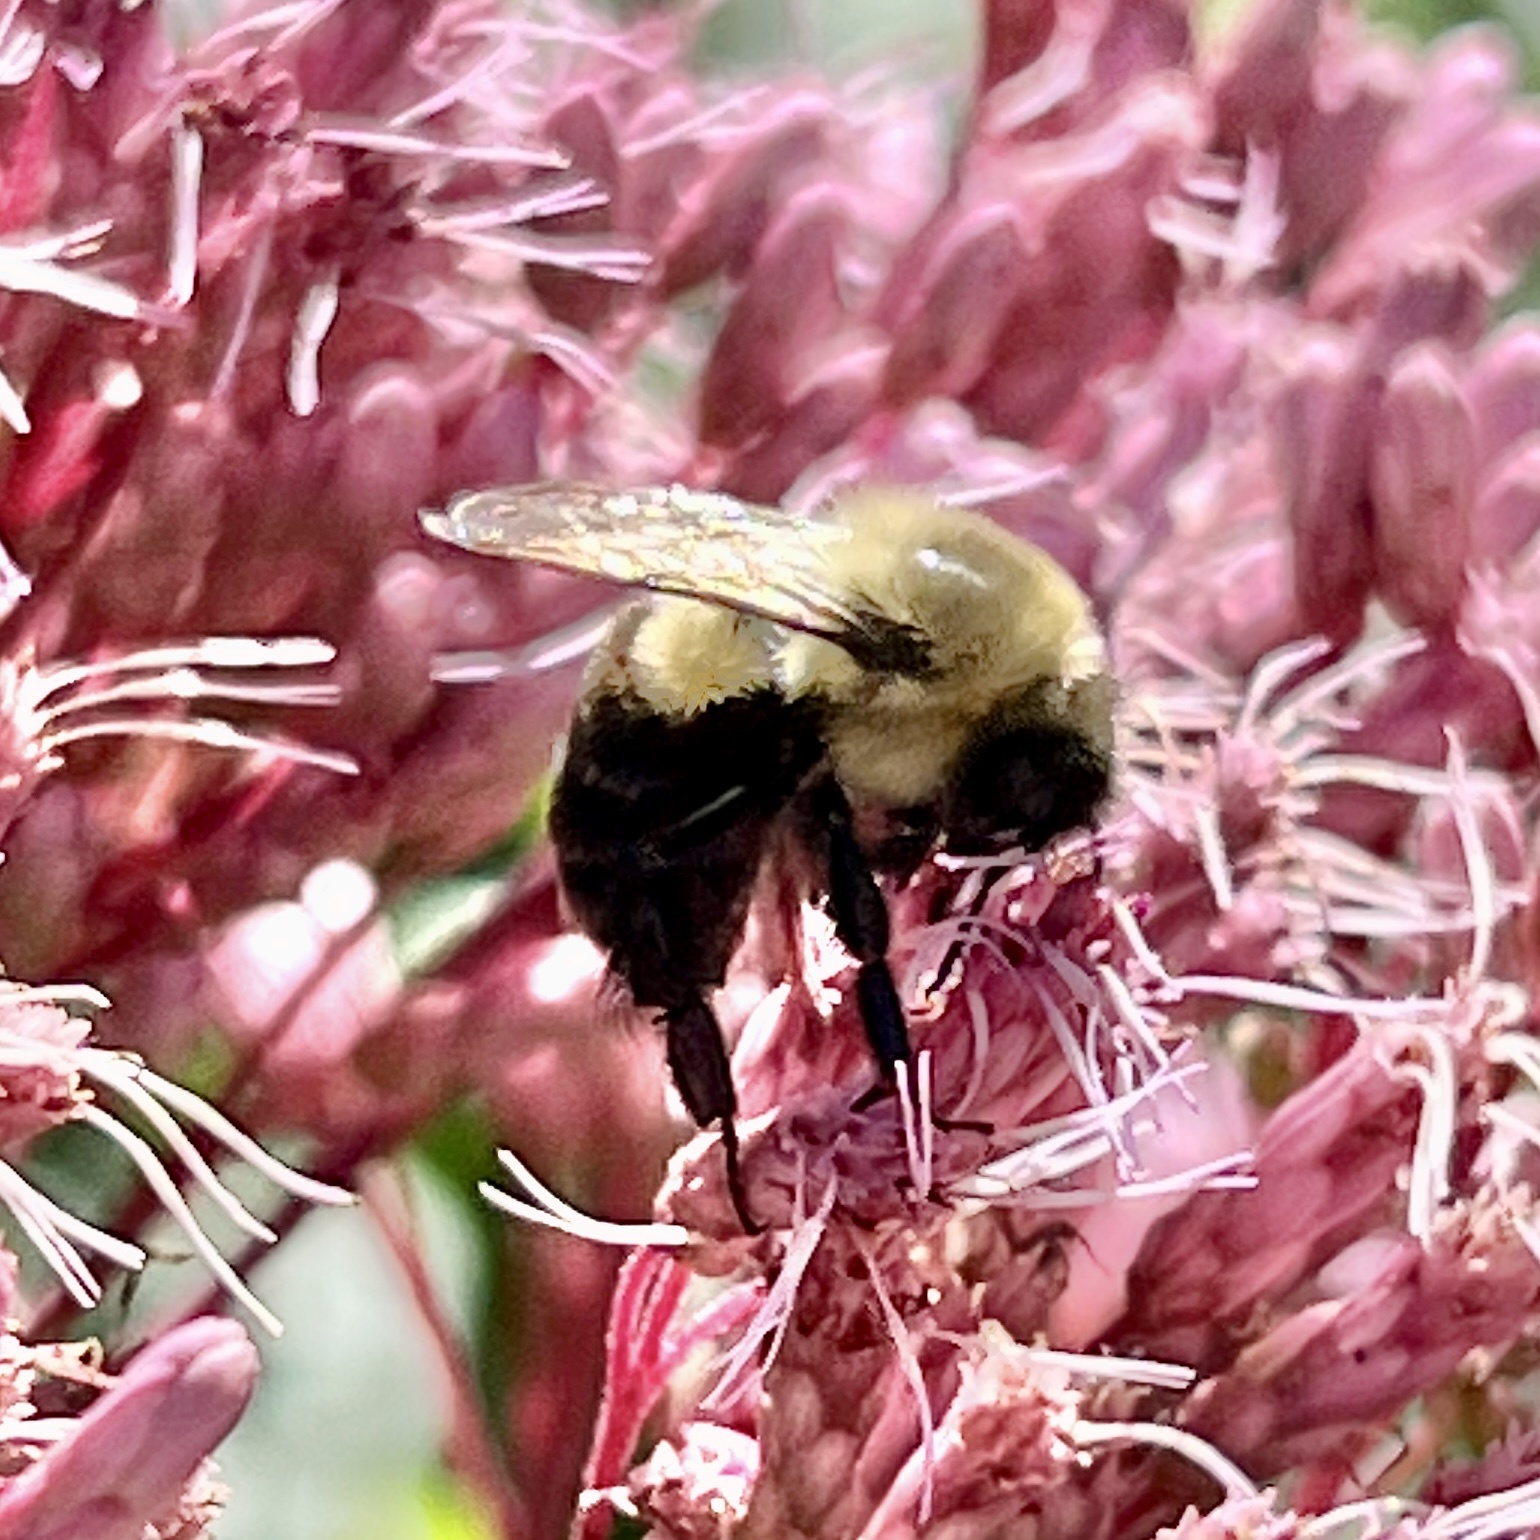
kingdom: Animalia
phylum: Arthropoda
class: Insecta
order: Hymenoptera
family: Apidae
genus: Bombus
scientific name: Bombus impatiens
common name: Common eastern bumble bee
